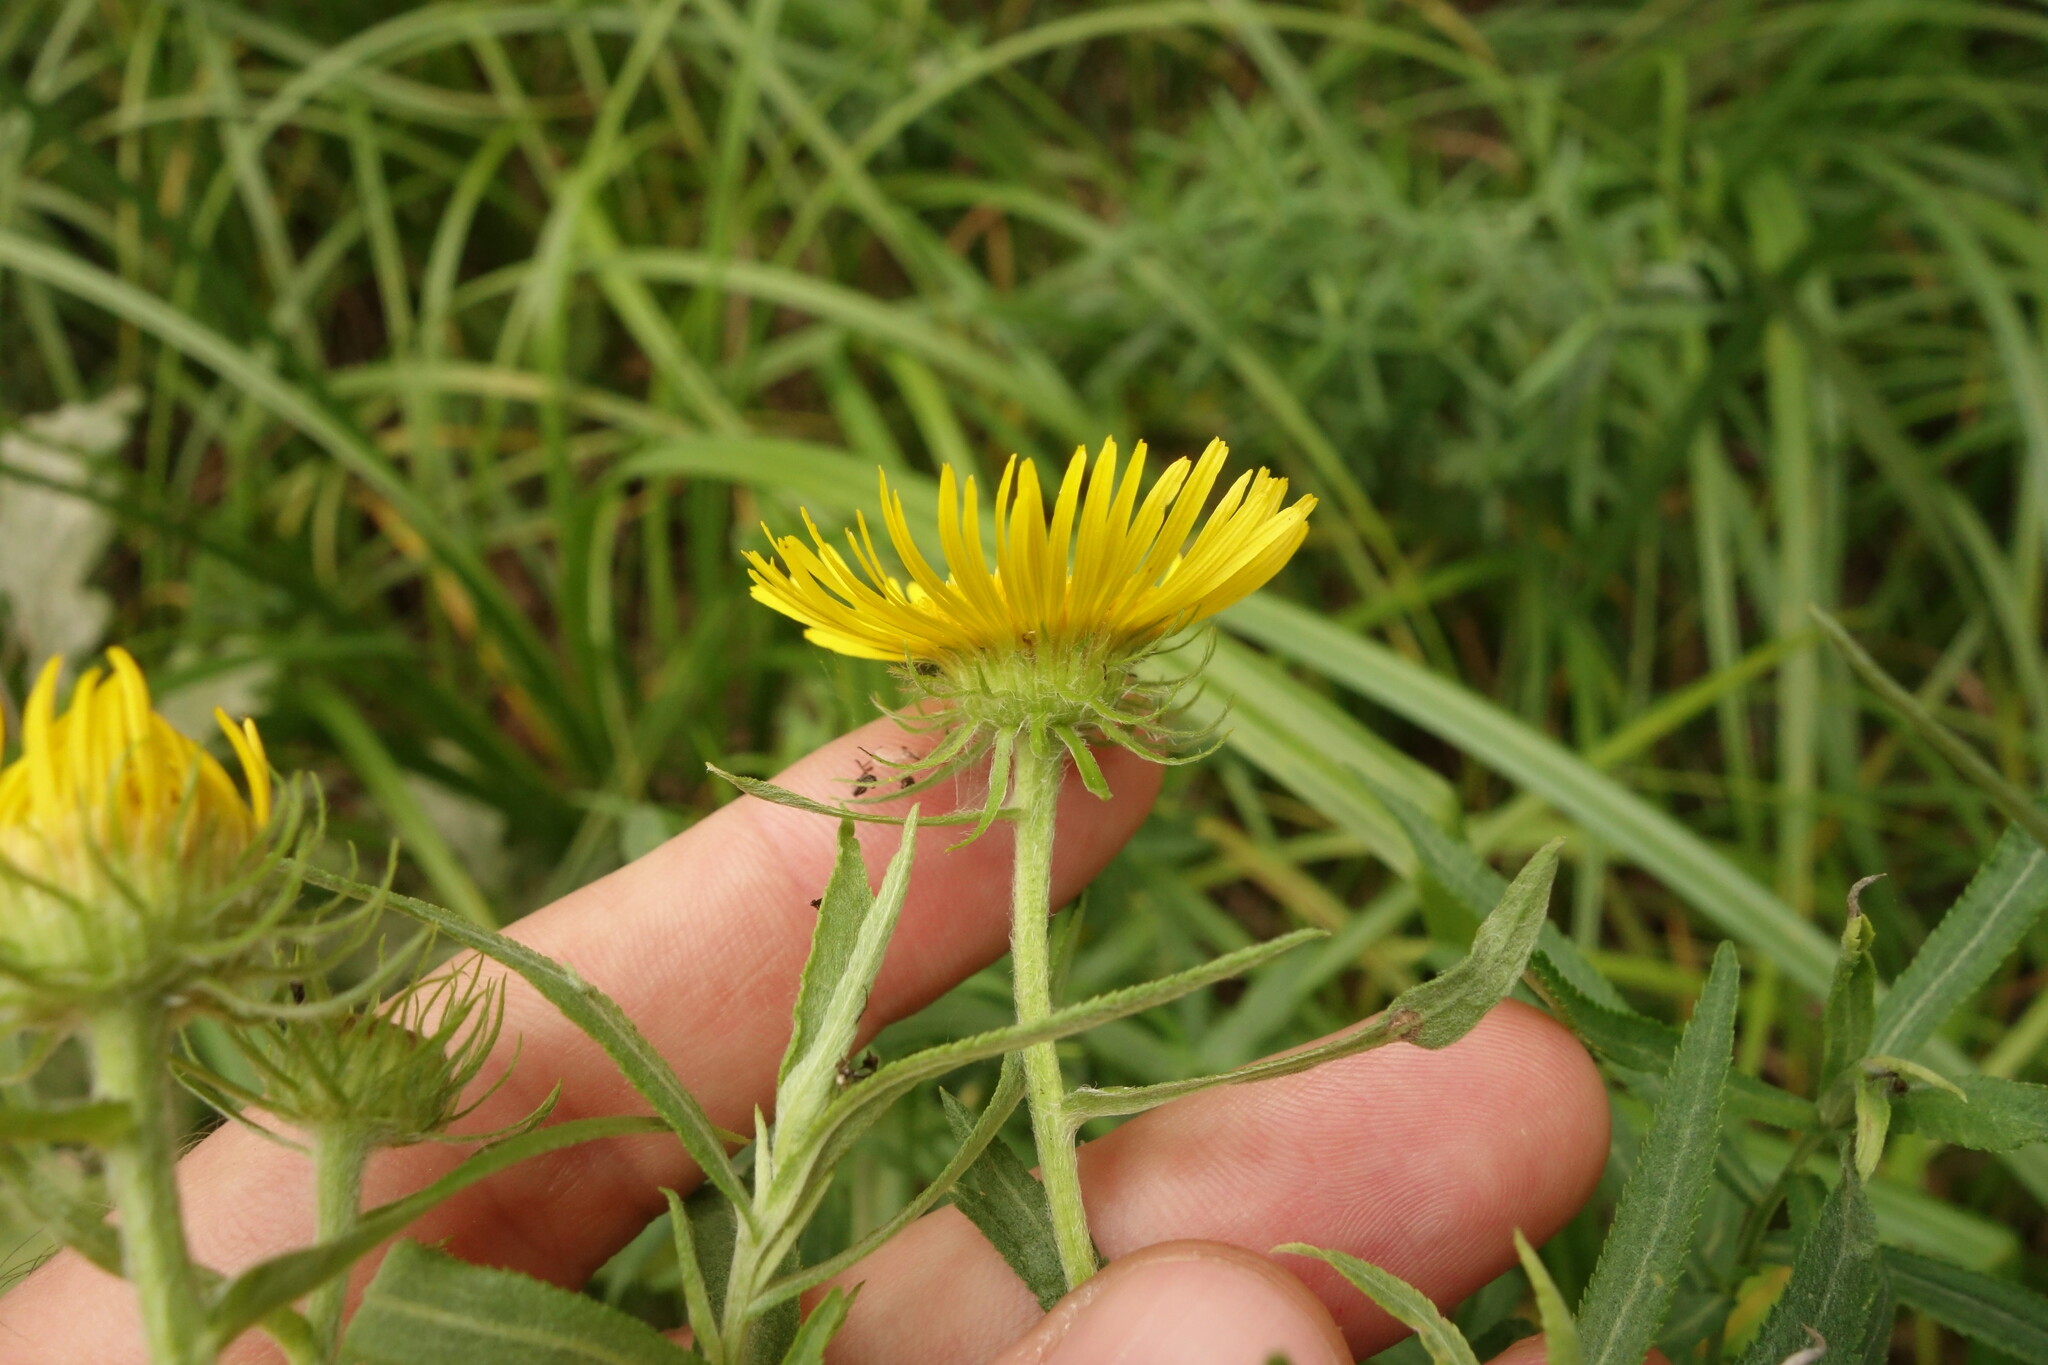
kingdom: Plantae
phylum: Tracheophyta
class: Magnoliopsida
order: Asterales
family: Asteraceae
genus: Pentanema
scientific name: Pentanema britannicum
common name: British elecampane
